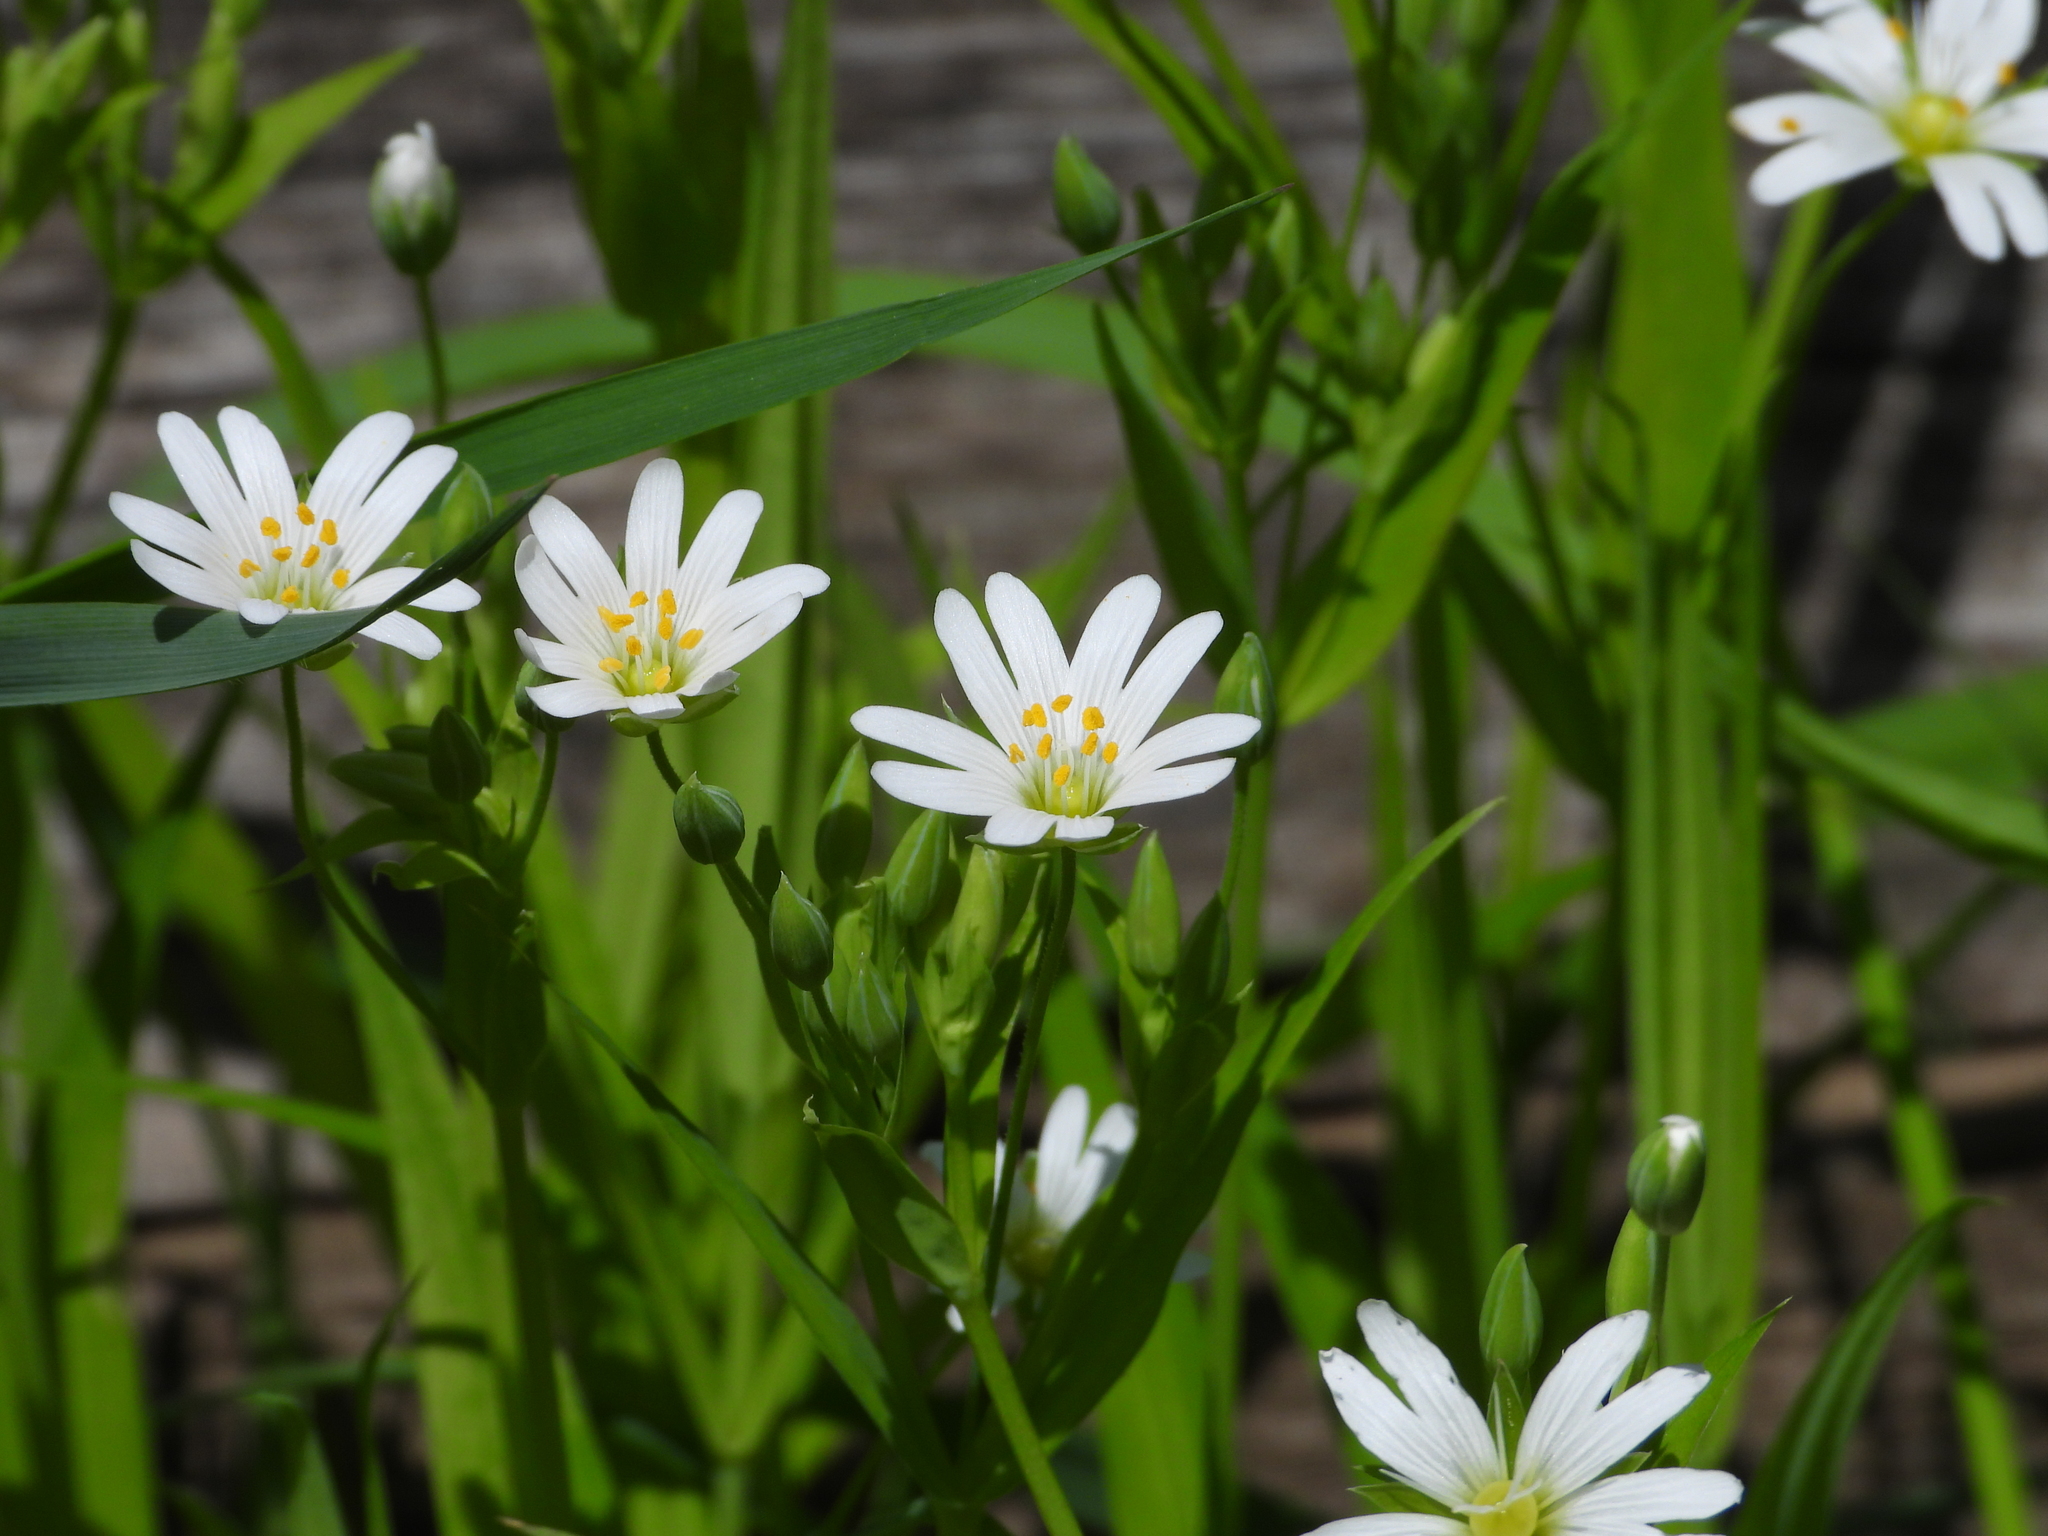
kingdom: Plantae
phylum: Tracheophyta
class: Magnoliopsida
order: Caryophyllales
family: Caryophyllaceae
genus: Rabelera
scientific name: Rabelera holostea
